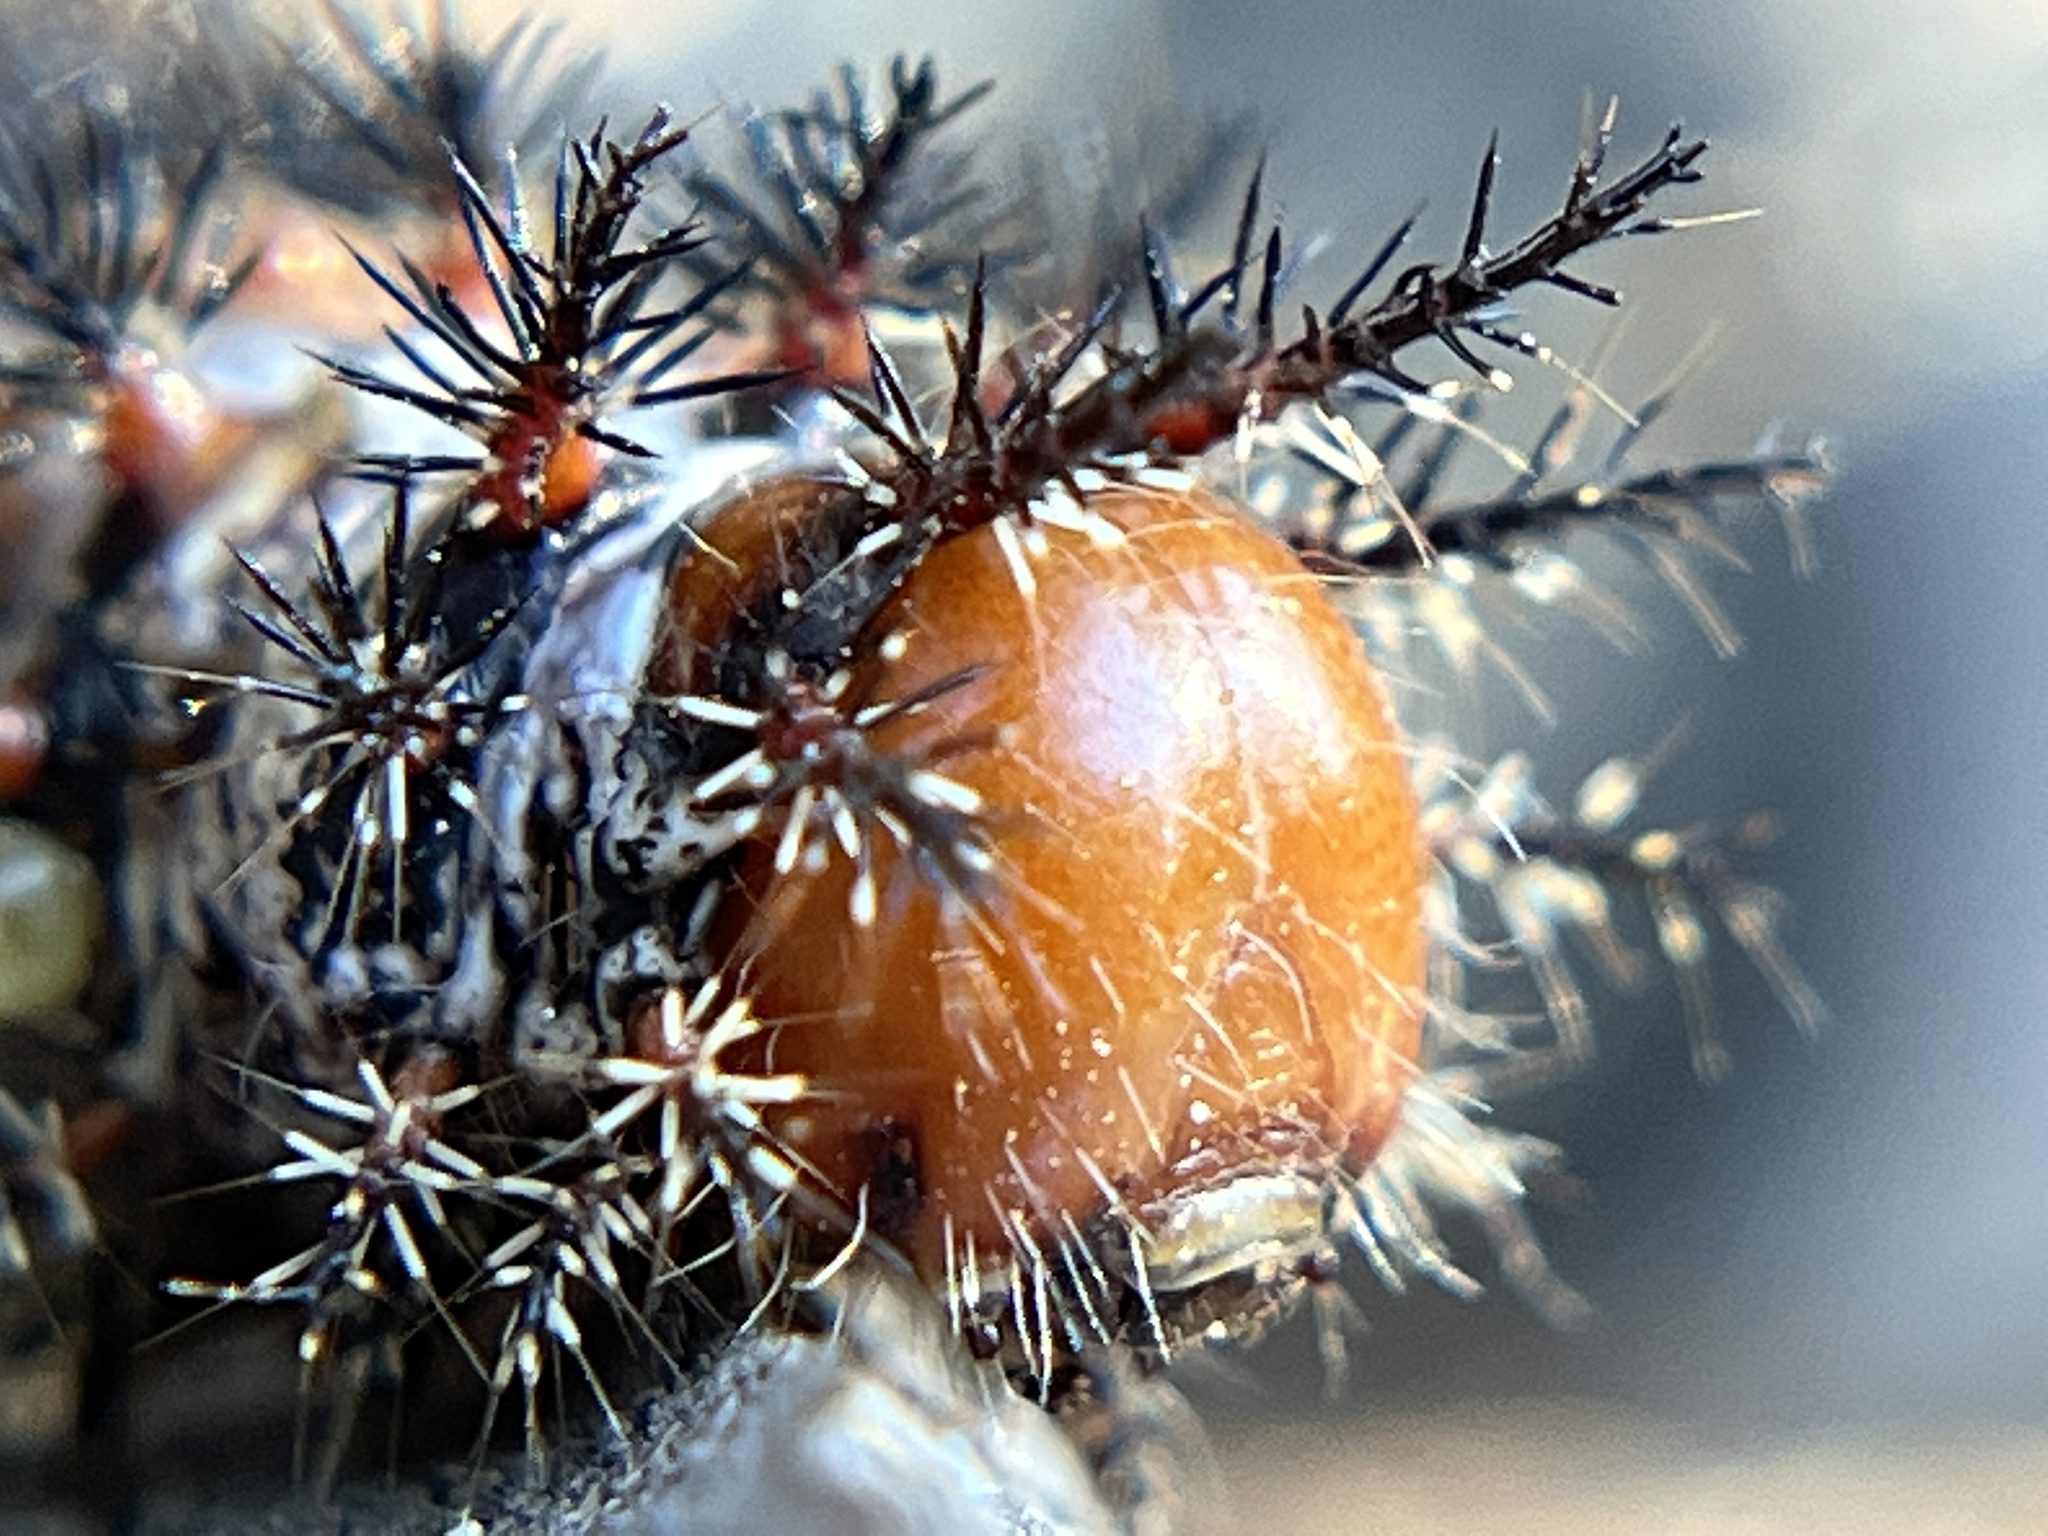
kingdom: Animalia
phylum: Arthropoda
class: Insecta
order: Lepidoptera
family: Saturniidae
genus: Coloradia
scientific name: Coloradia velda
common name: Velda pinemoth
